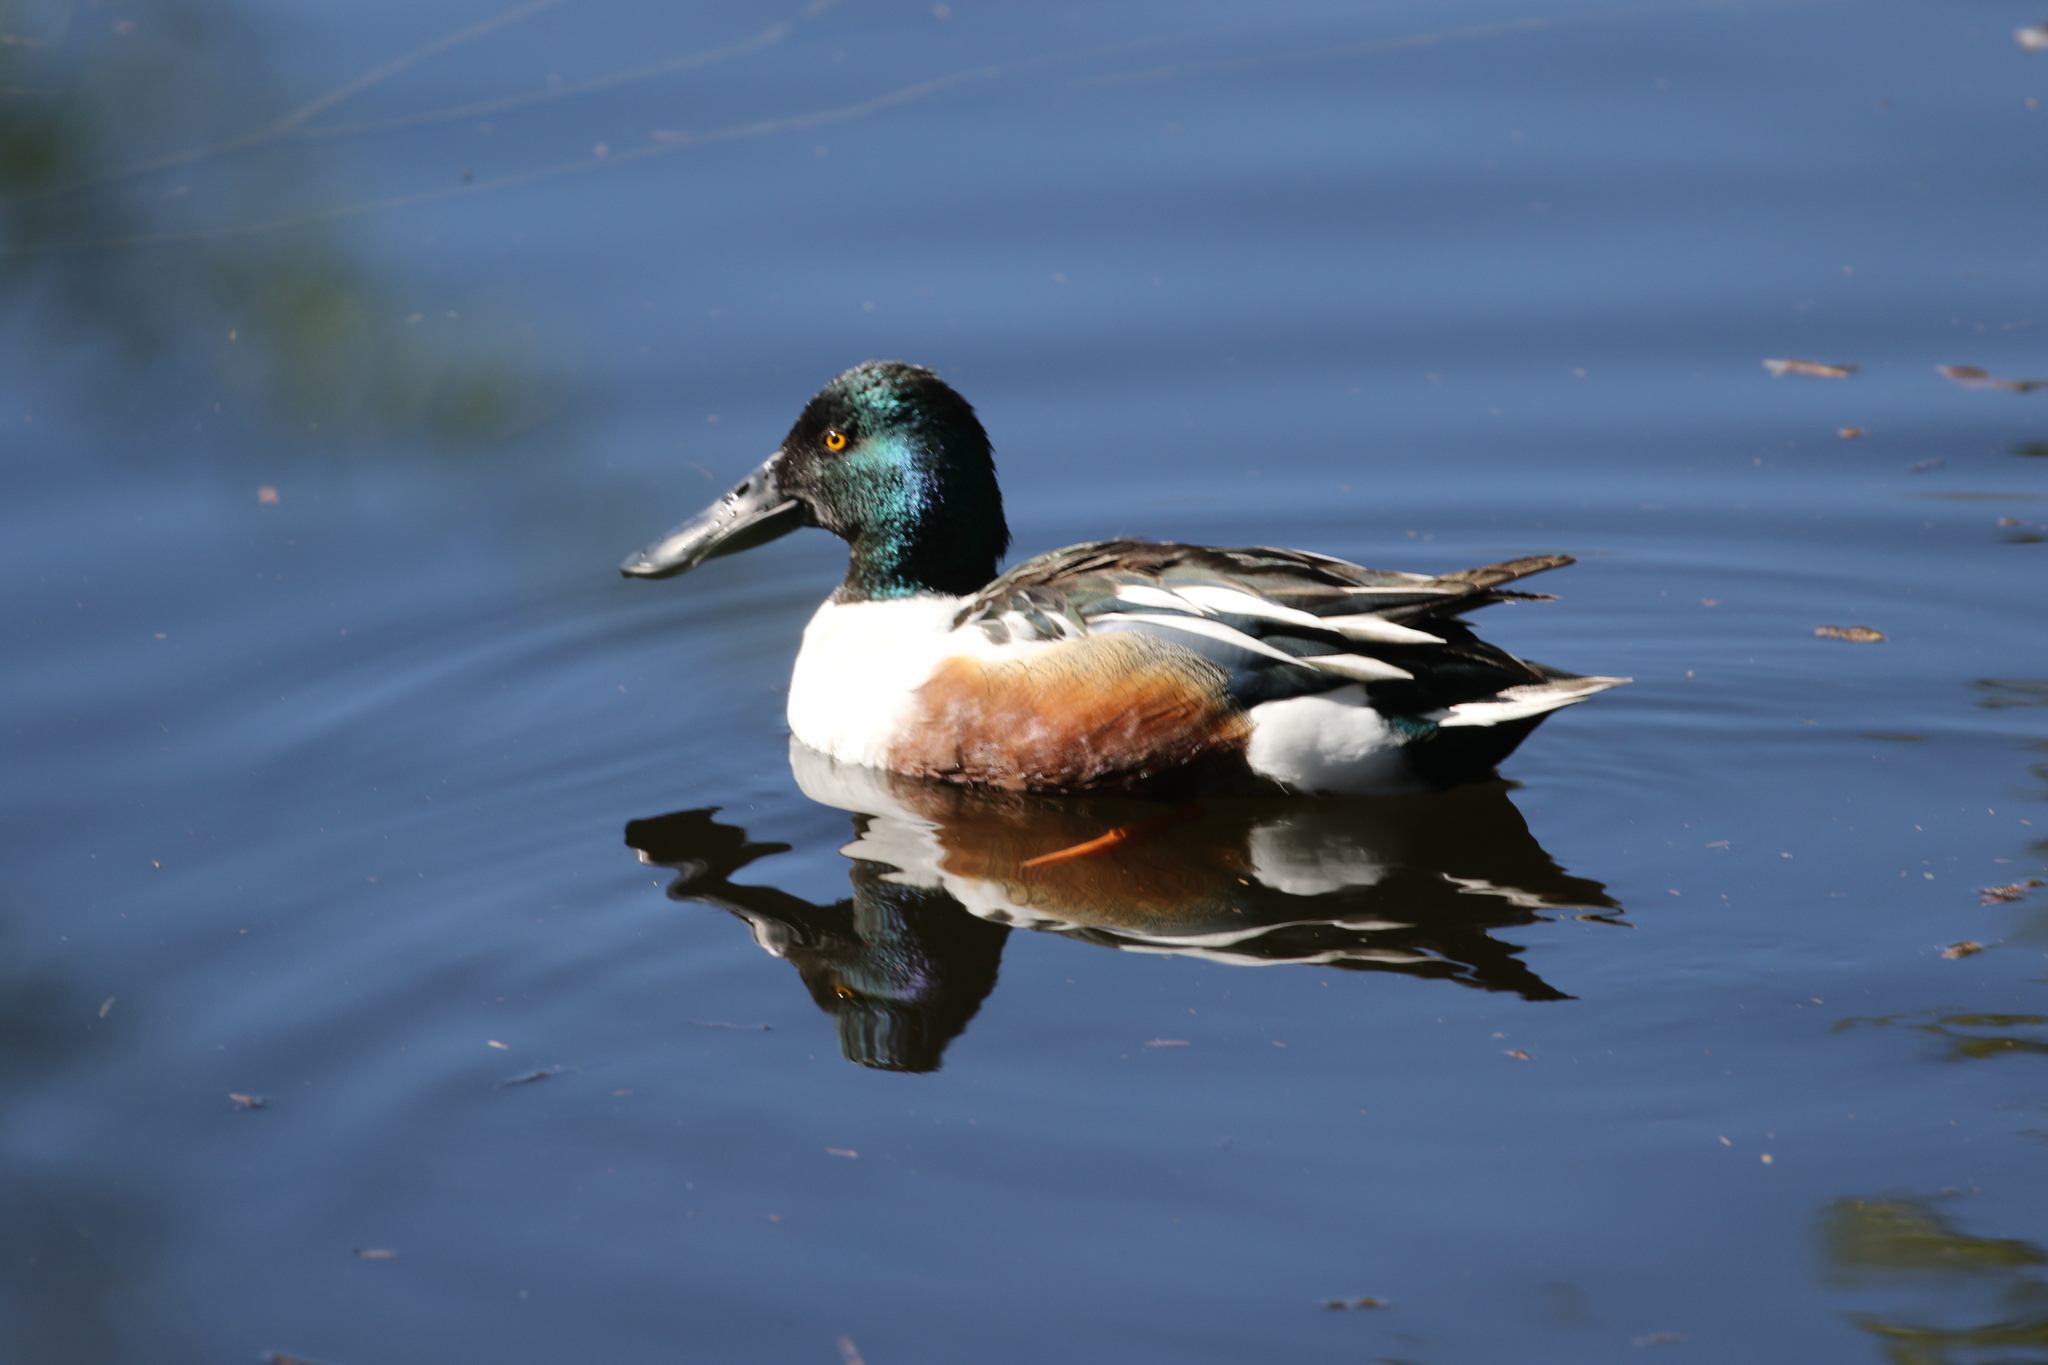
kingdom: Animalia
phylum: Chordata
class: Aves
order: Anseriformes
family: Anatidae
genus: Spatula
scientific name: Spatula clypeata
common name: Northern shoveler
